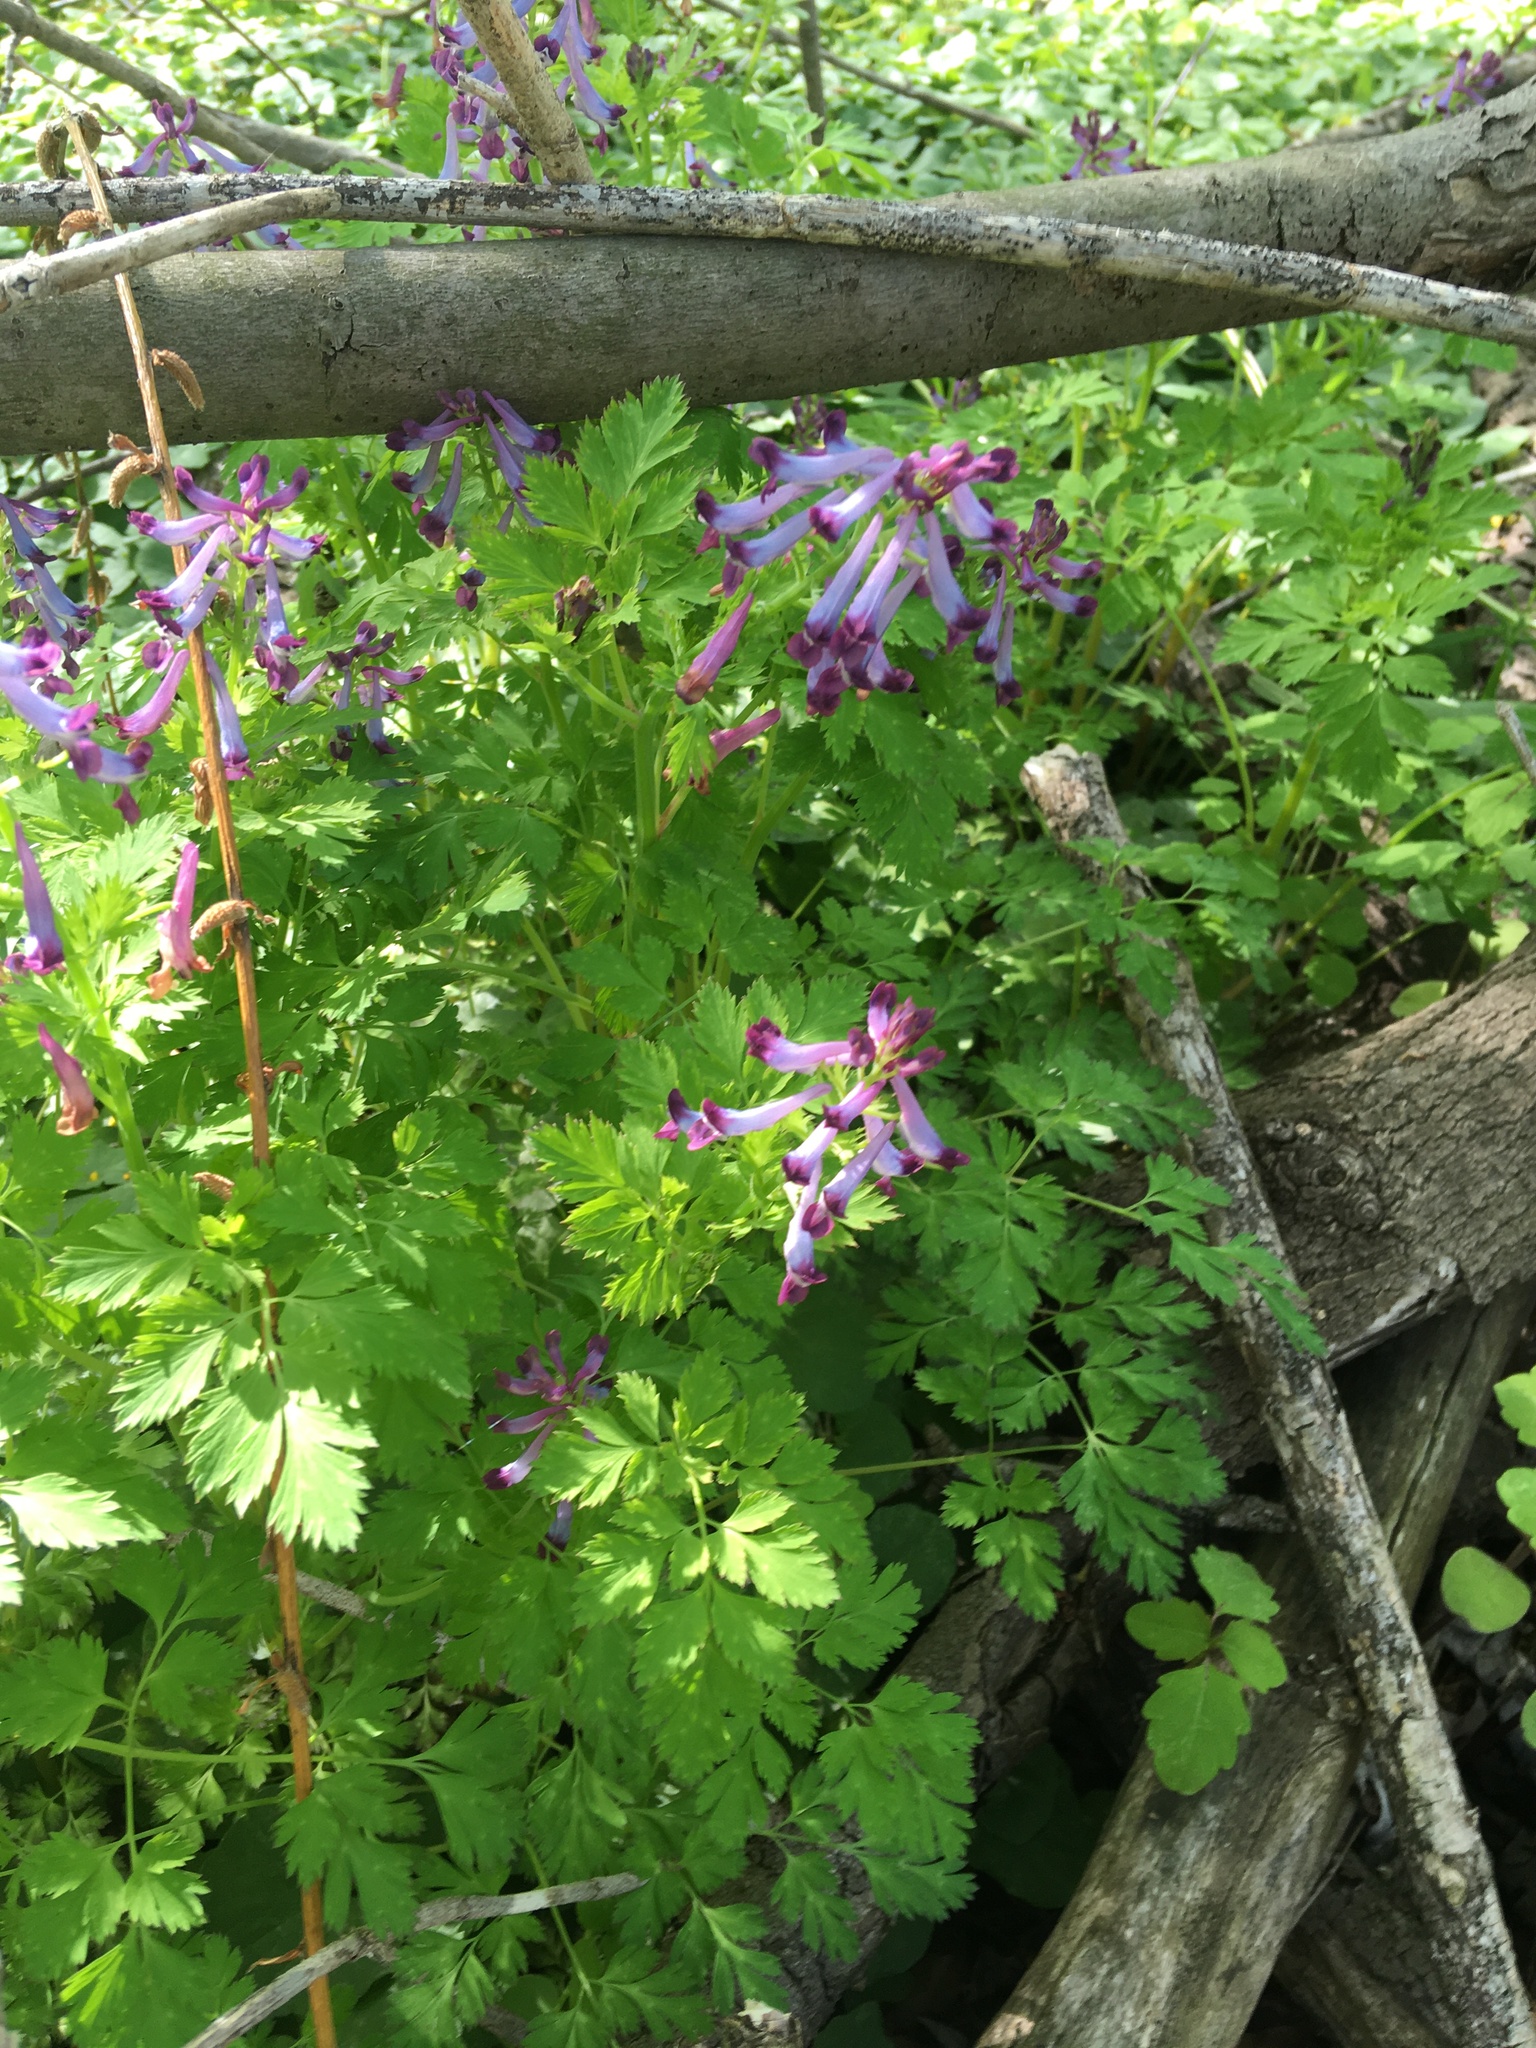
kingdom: Plantae
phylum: Tracheophyta
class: Magnoliopsida
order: Ranunculales
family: Papaveraceae
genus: Corydalis
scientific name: Corydalis incisa
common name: Incised fumewort
